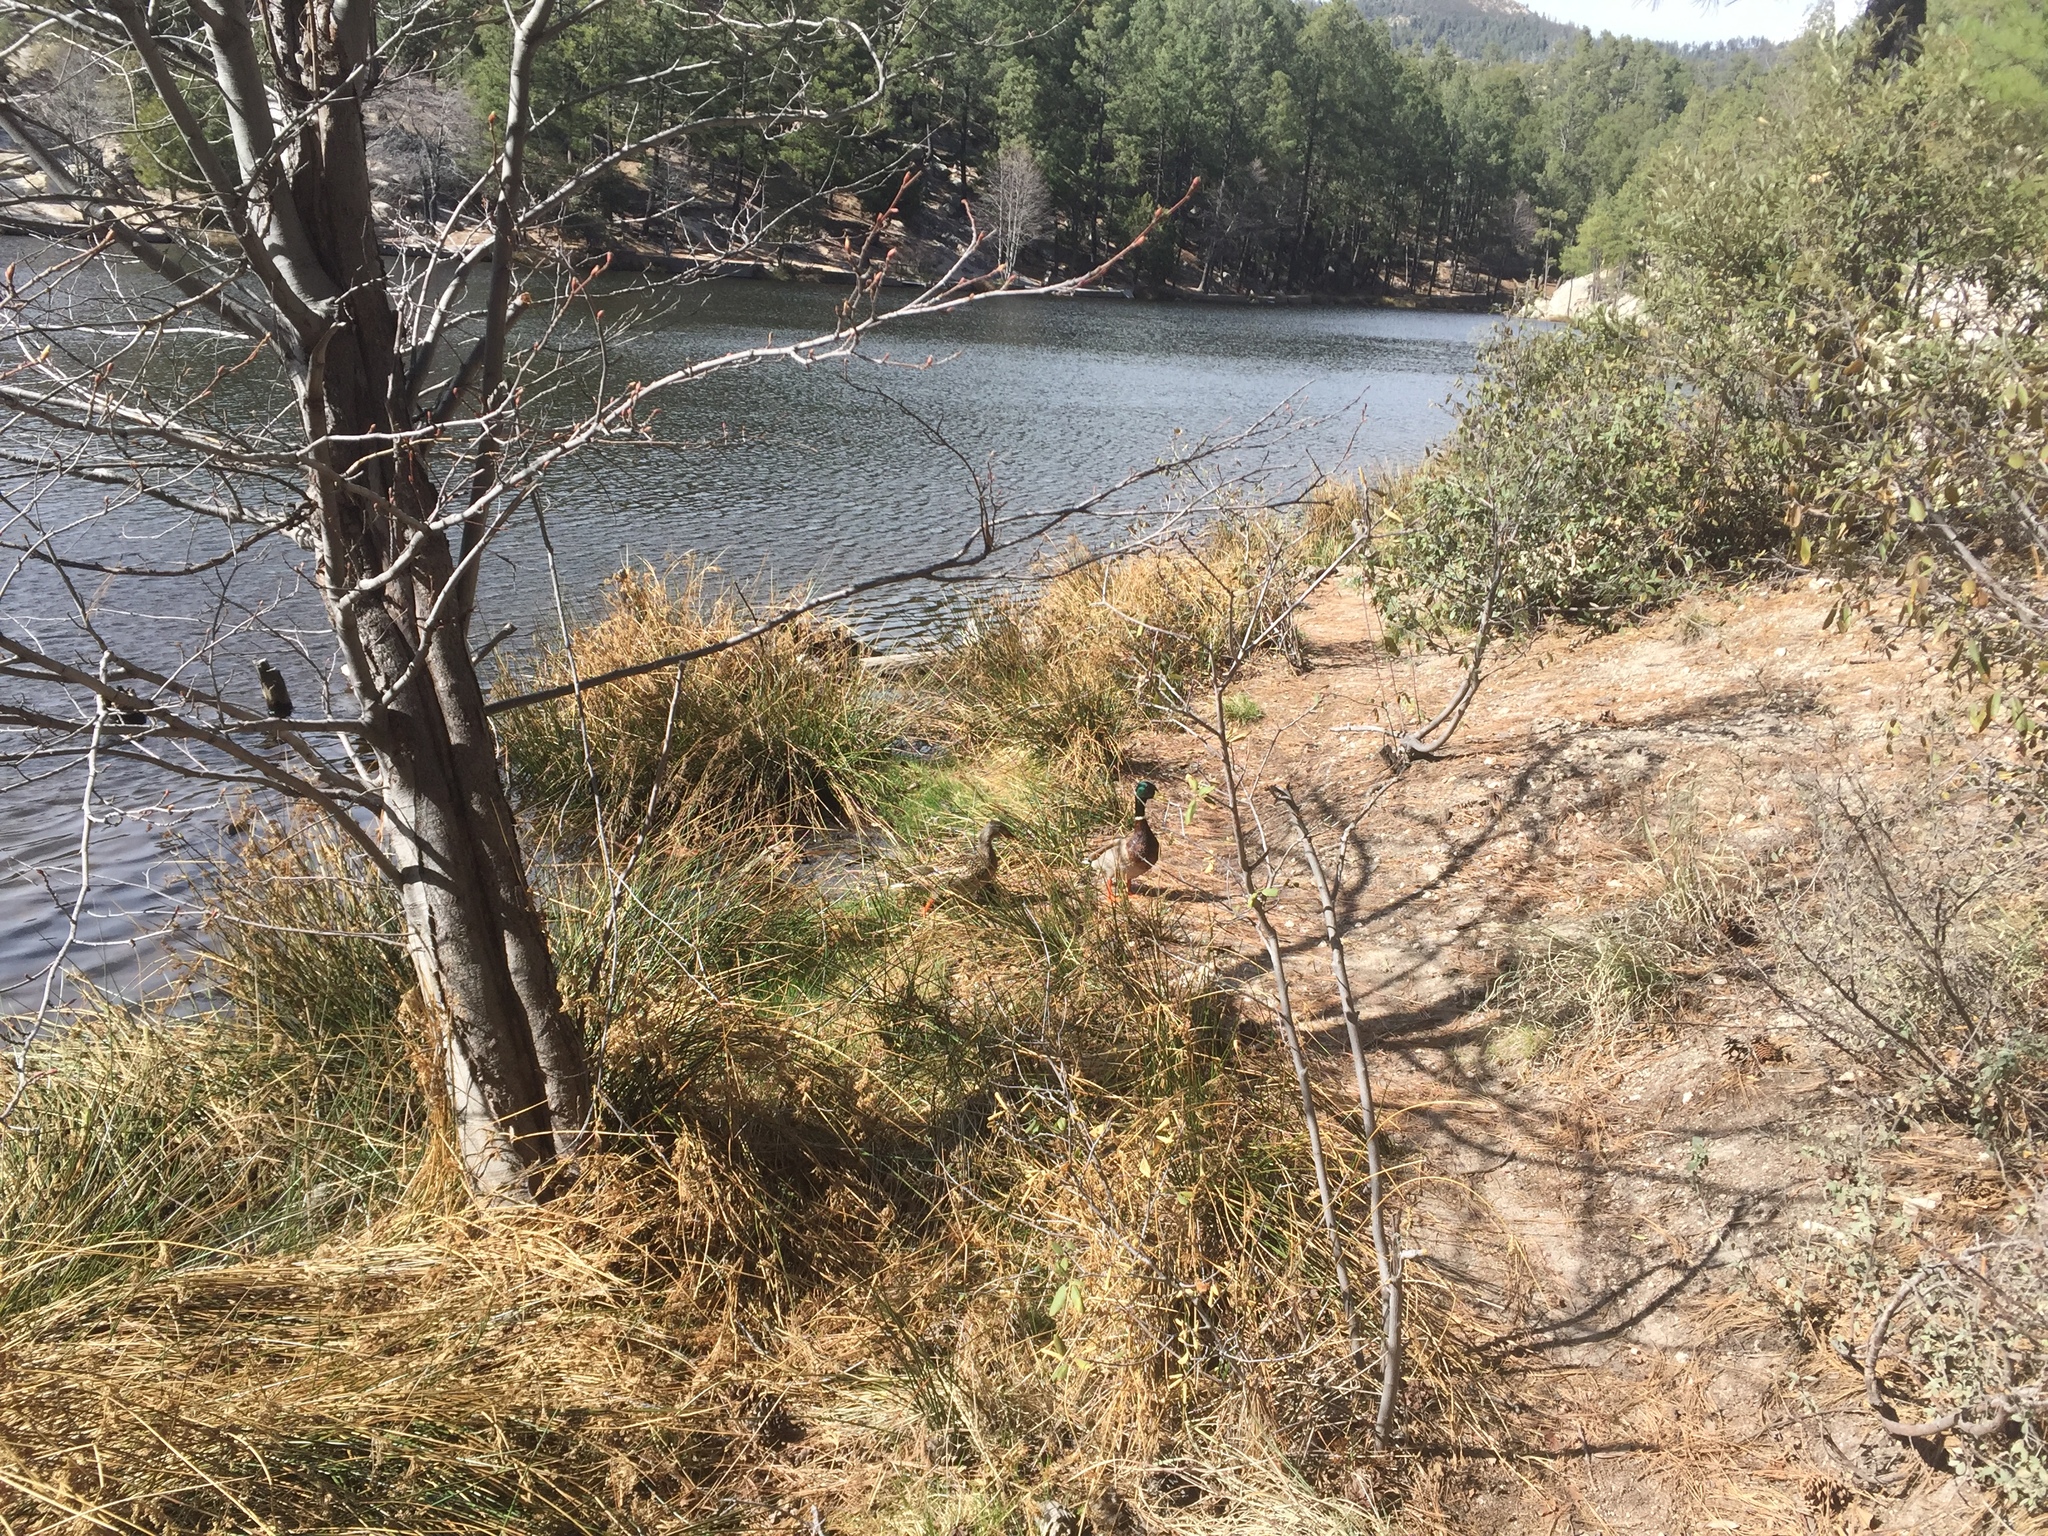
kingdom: Animalia
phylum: Chordata
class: Aves
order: Anseriformes
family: Anatidae
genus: Anas
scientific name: Anas platyrhynchos
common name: Mallard
